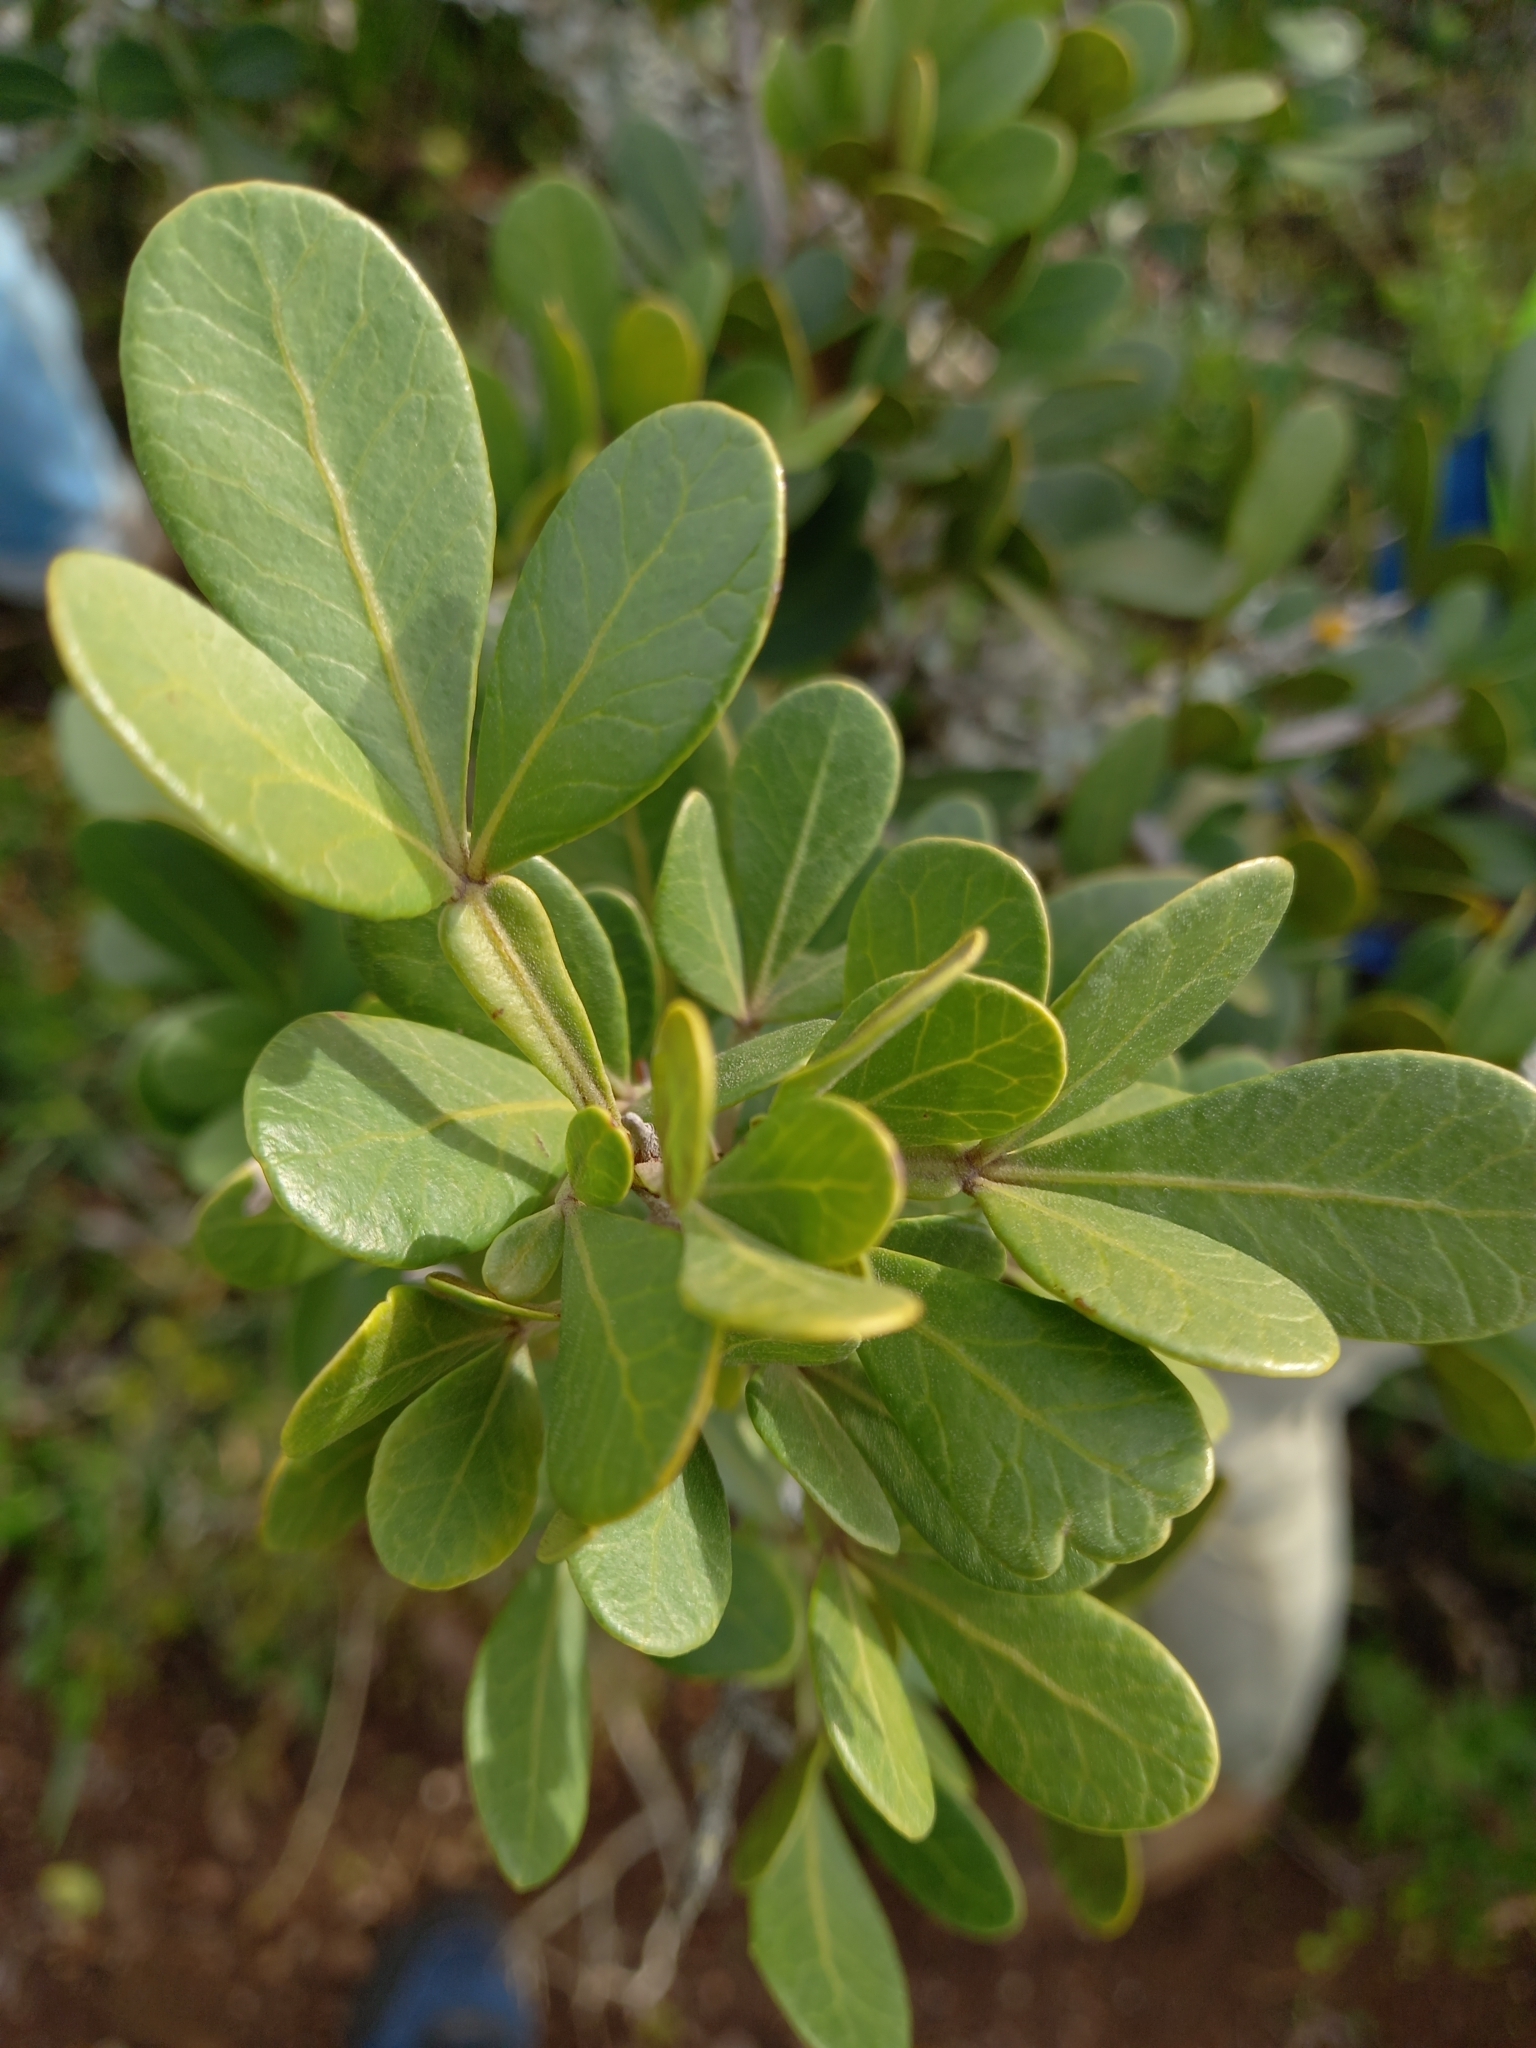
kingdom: Plantae
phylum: Tracheophyta
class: Magnoliopsida
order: Sapindales
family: Anacardiaceae
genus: Searsia
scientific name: Searsia pterota
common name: Winged currant
